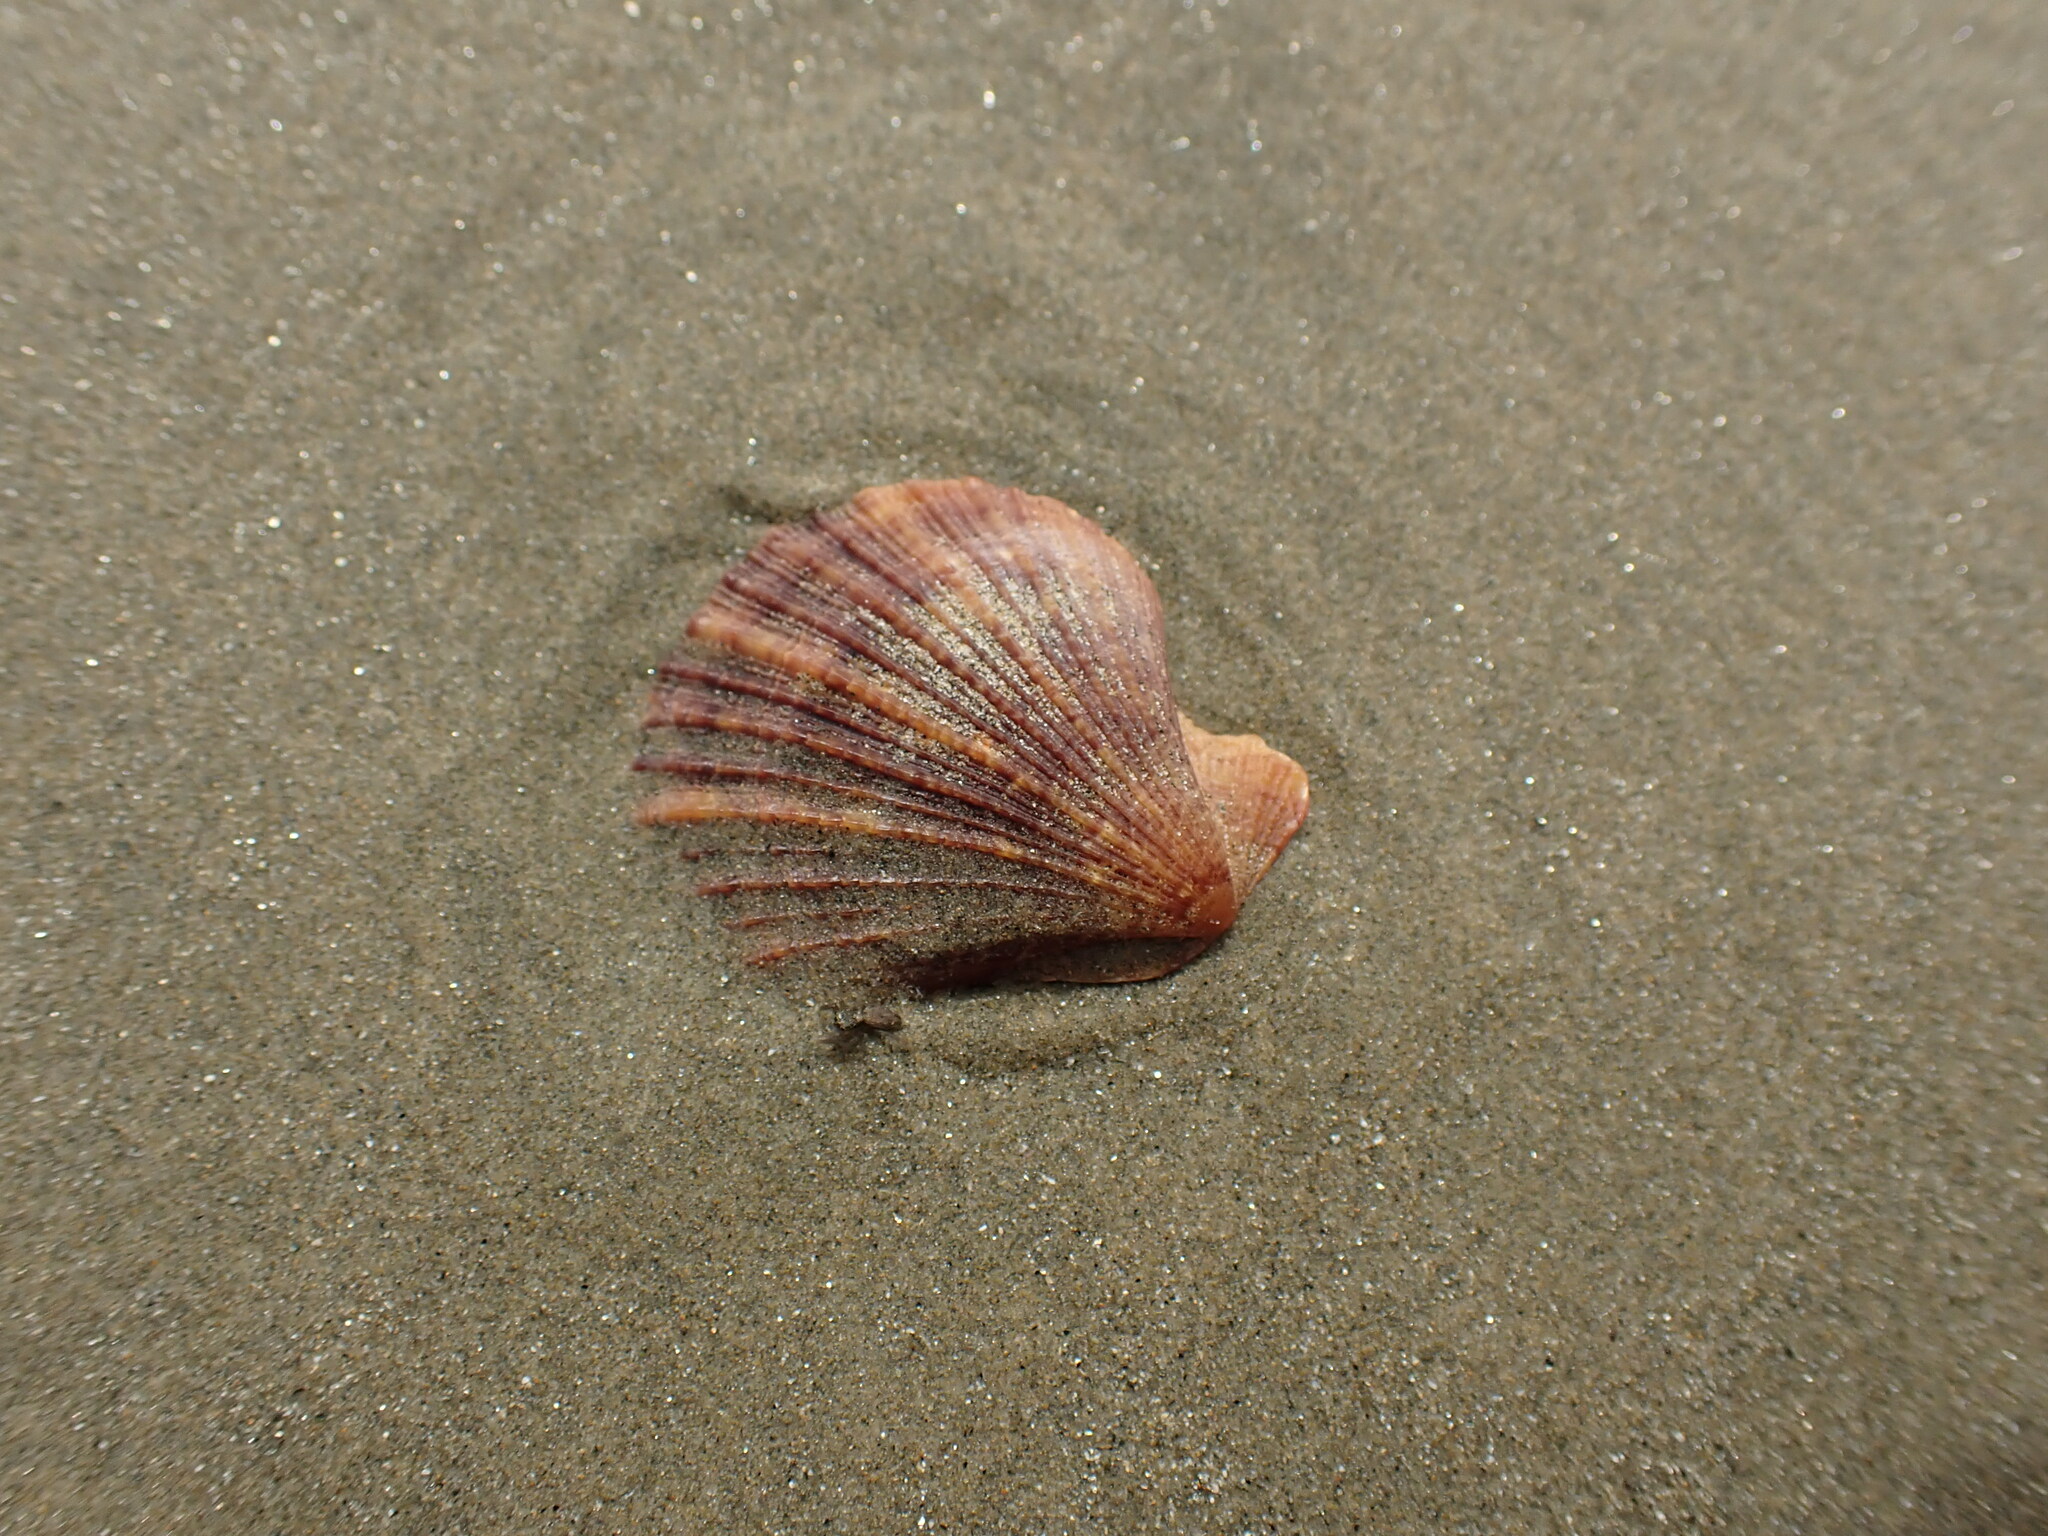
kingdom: Animalia
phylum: Mollusca
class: Bivalvia
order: Pectinida
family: Pectinidae
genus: Talochlamys
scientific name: Talochlamys zelandiae
